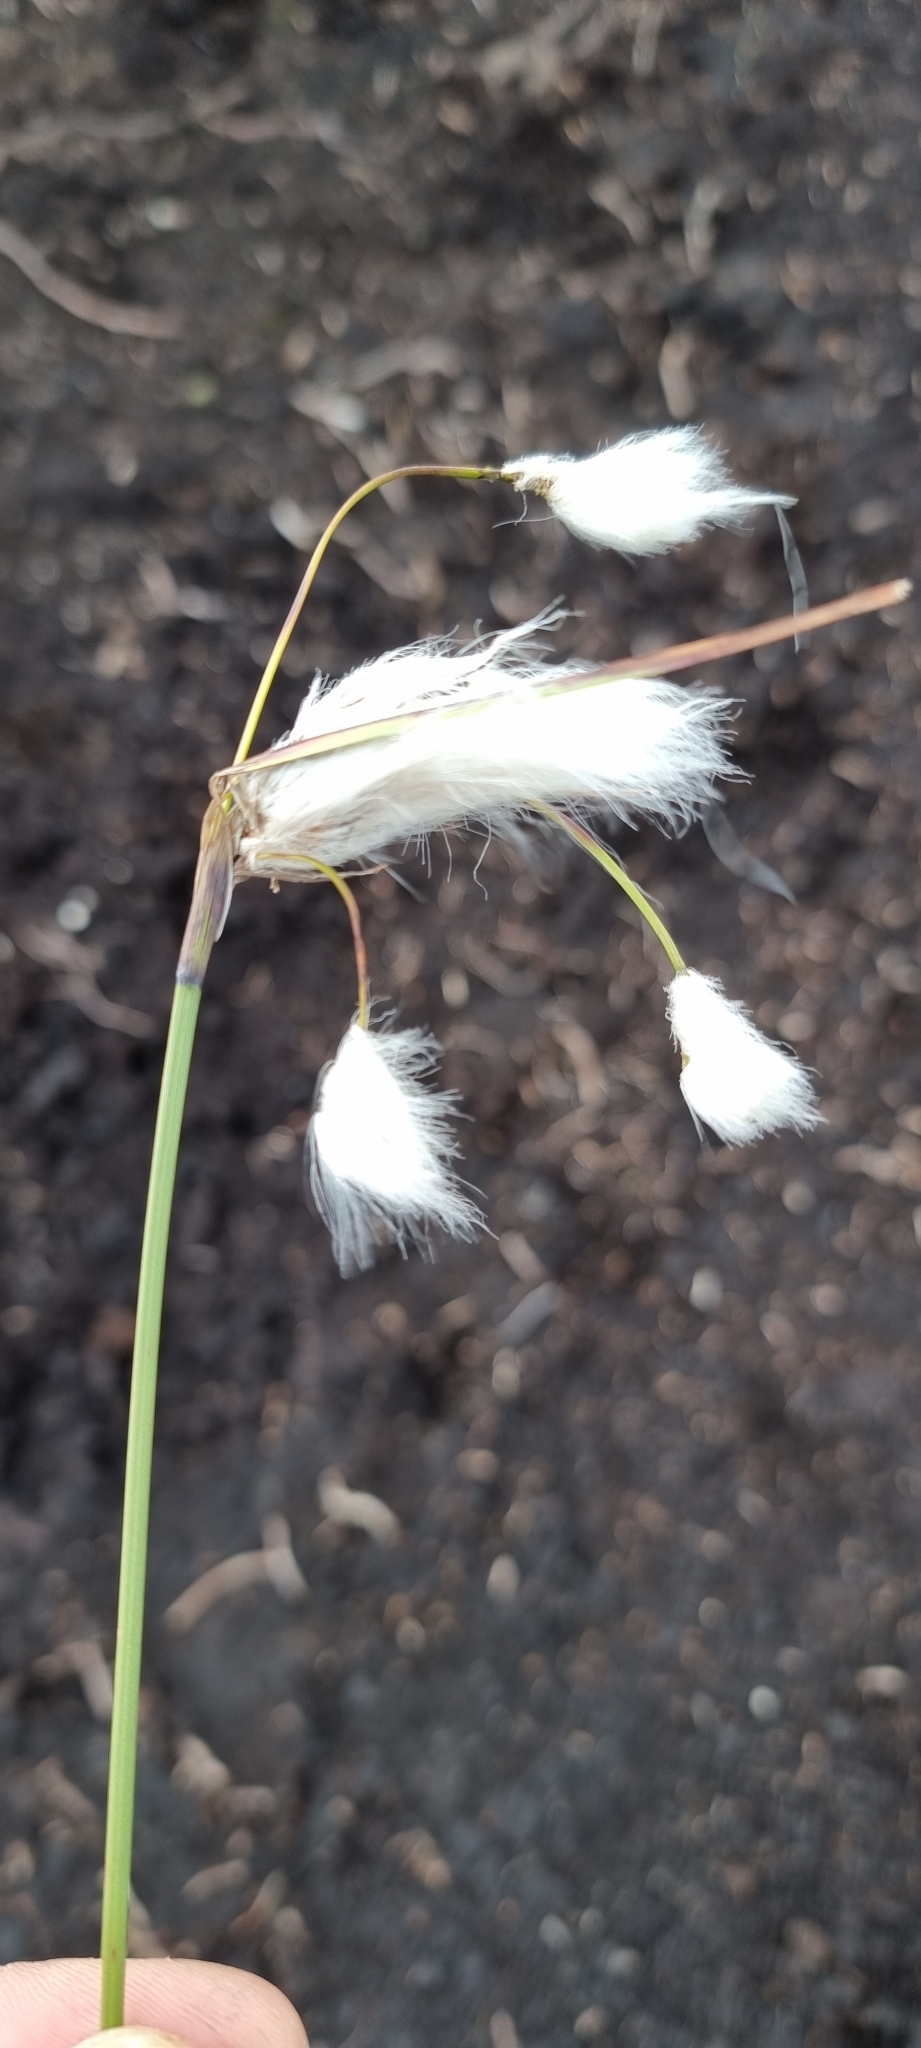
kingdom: Plantae
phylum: Tracheophyta
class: Liliopsida
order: Poales
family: Cyperaceae
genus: Eriophorum
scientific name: Eriophorum angustifolium
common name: Common cottongrass
